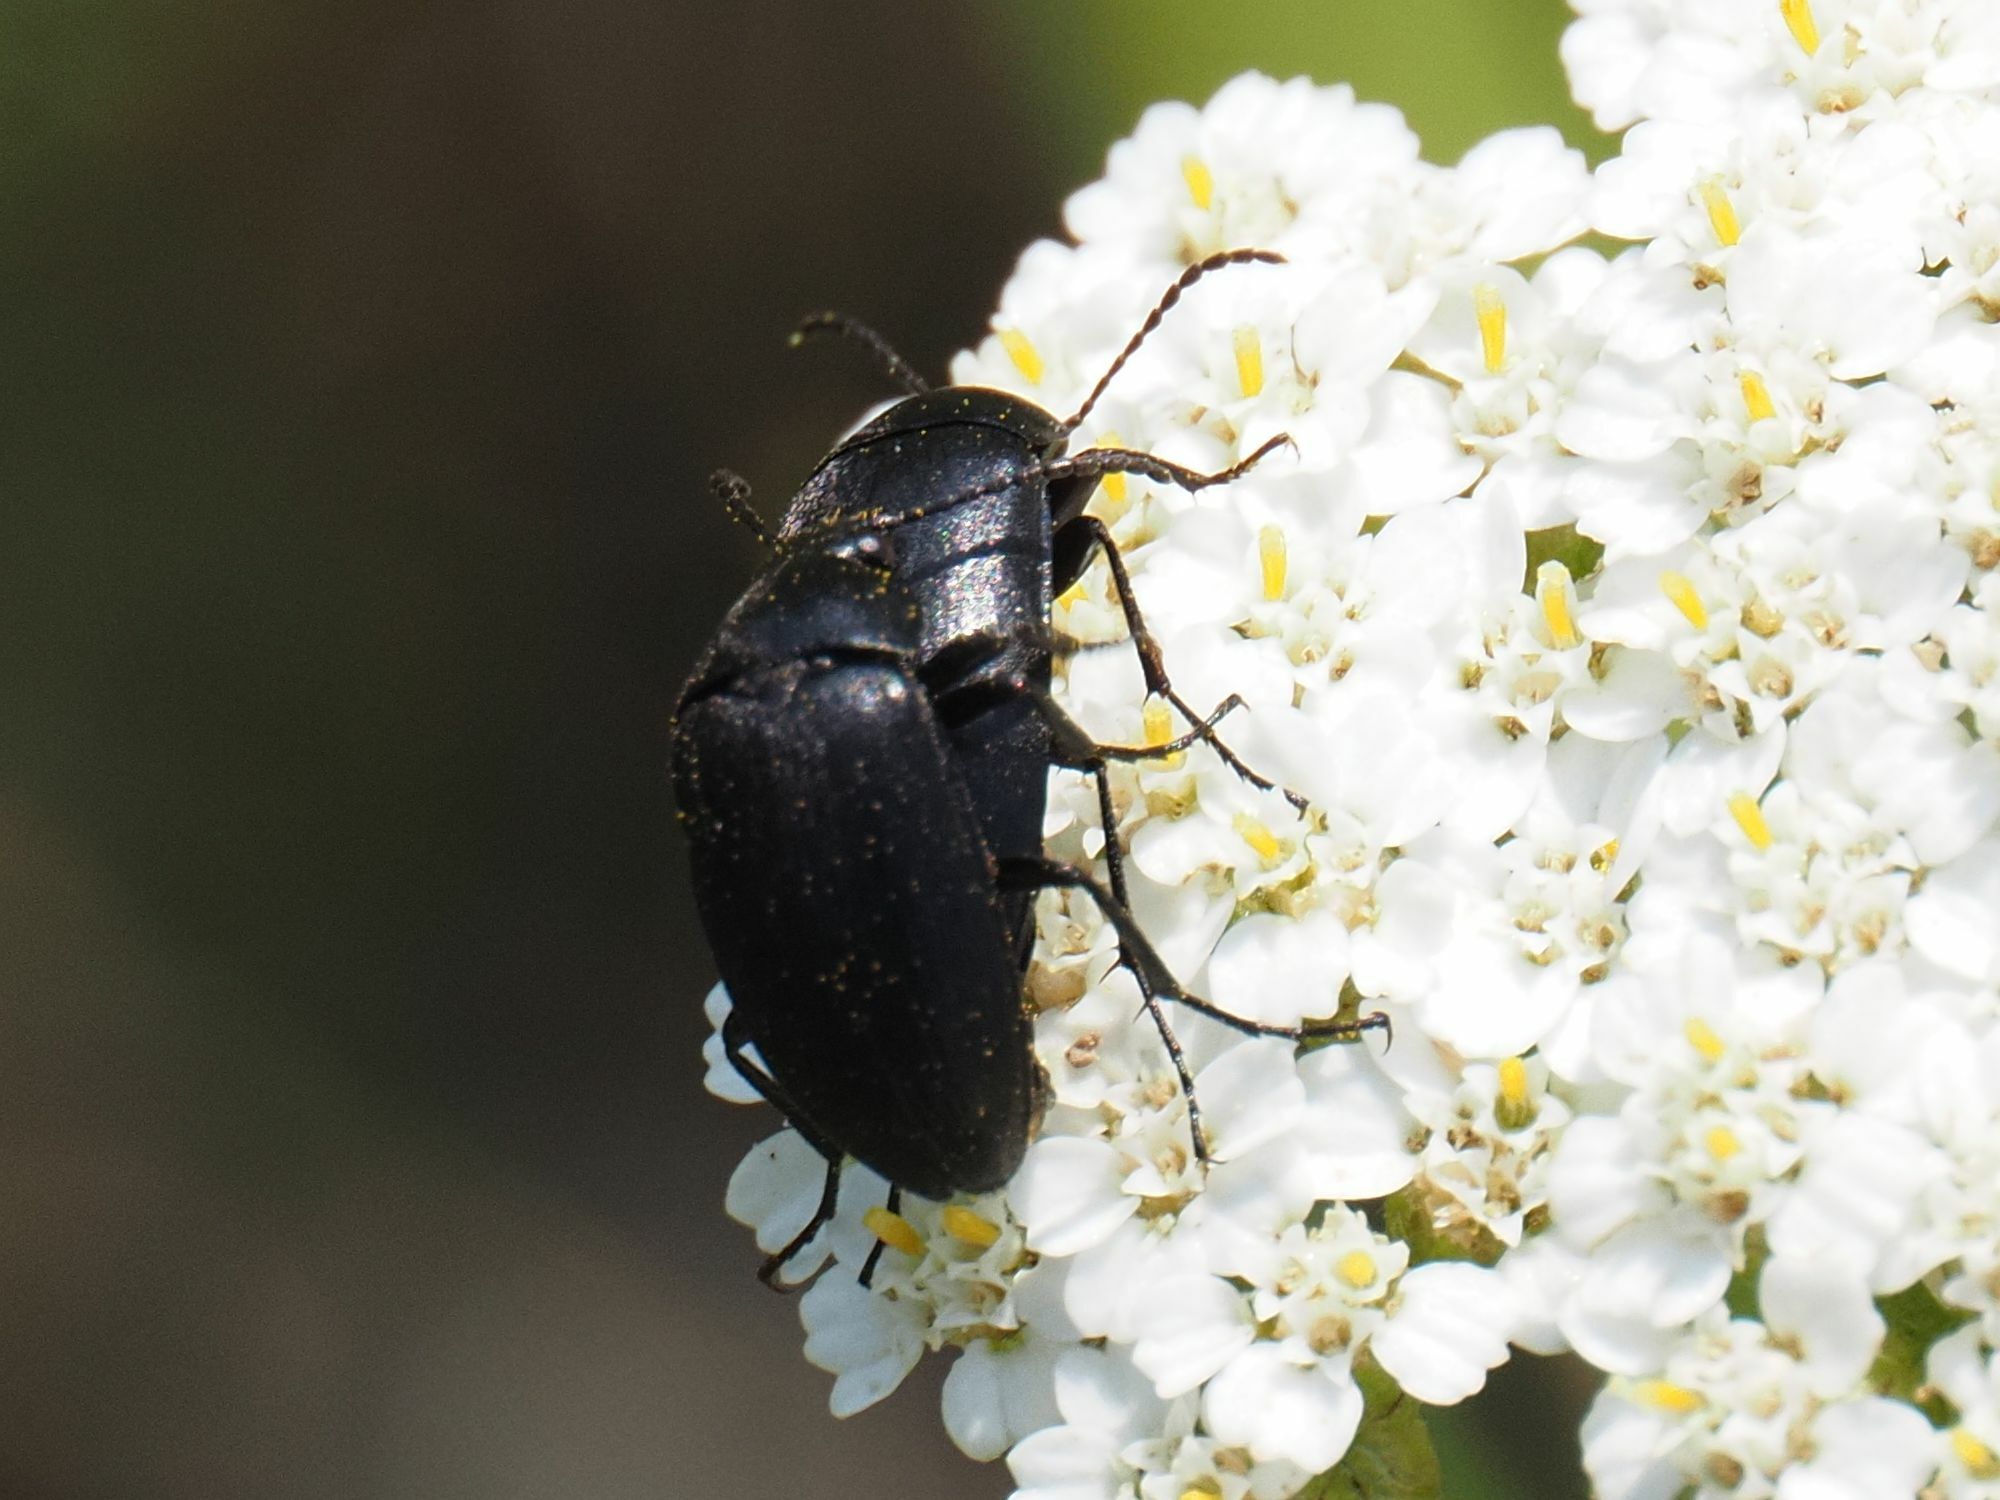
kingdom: Animalia
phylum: Arthropoda
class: Insecta
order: Coleoptera
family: Tenebrionidae
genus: Podonta
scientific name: Podonta nigrita
